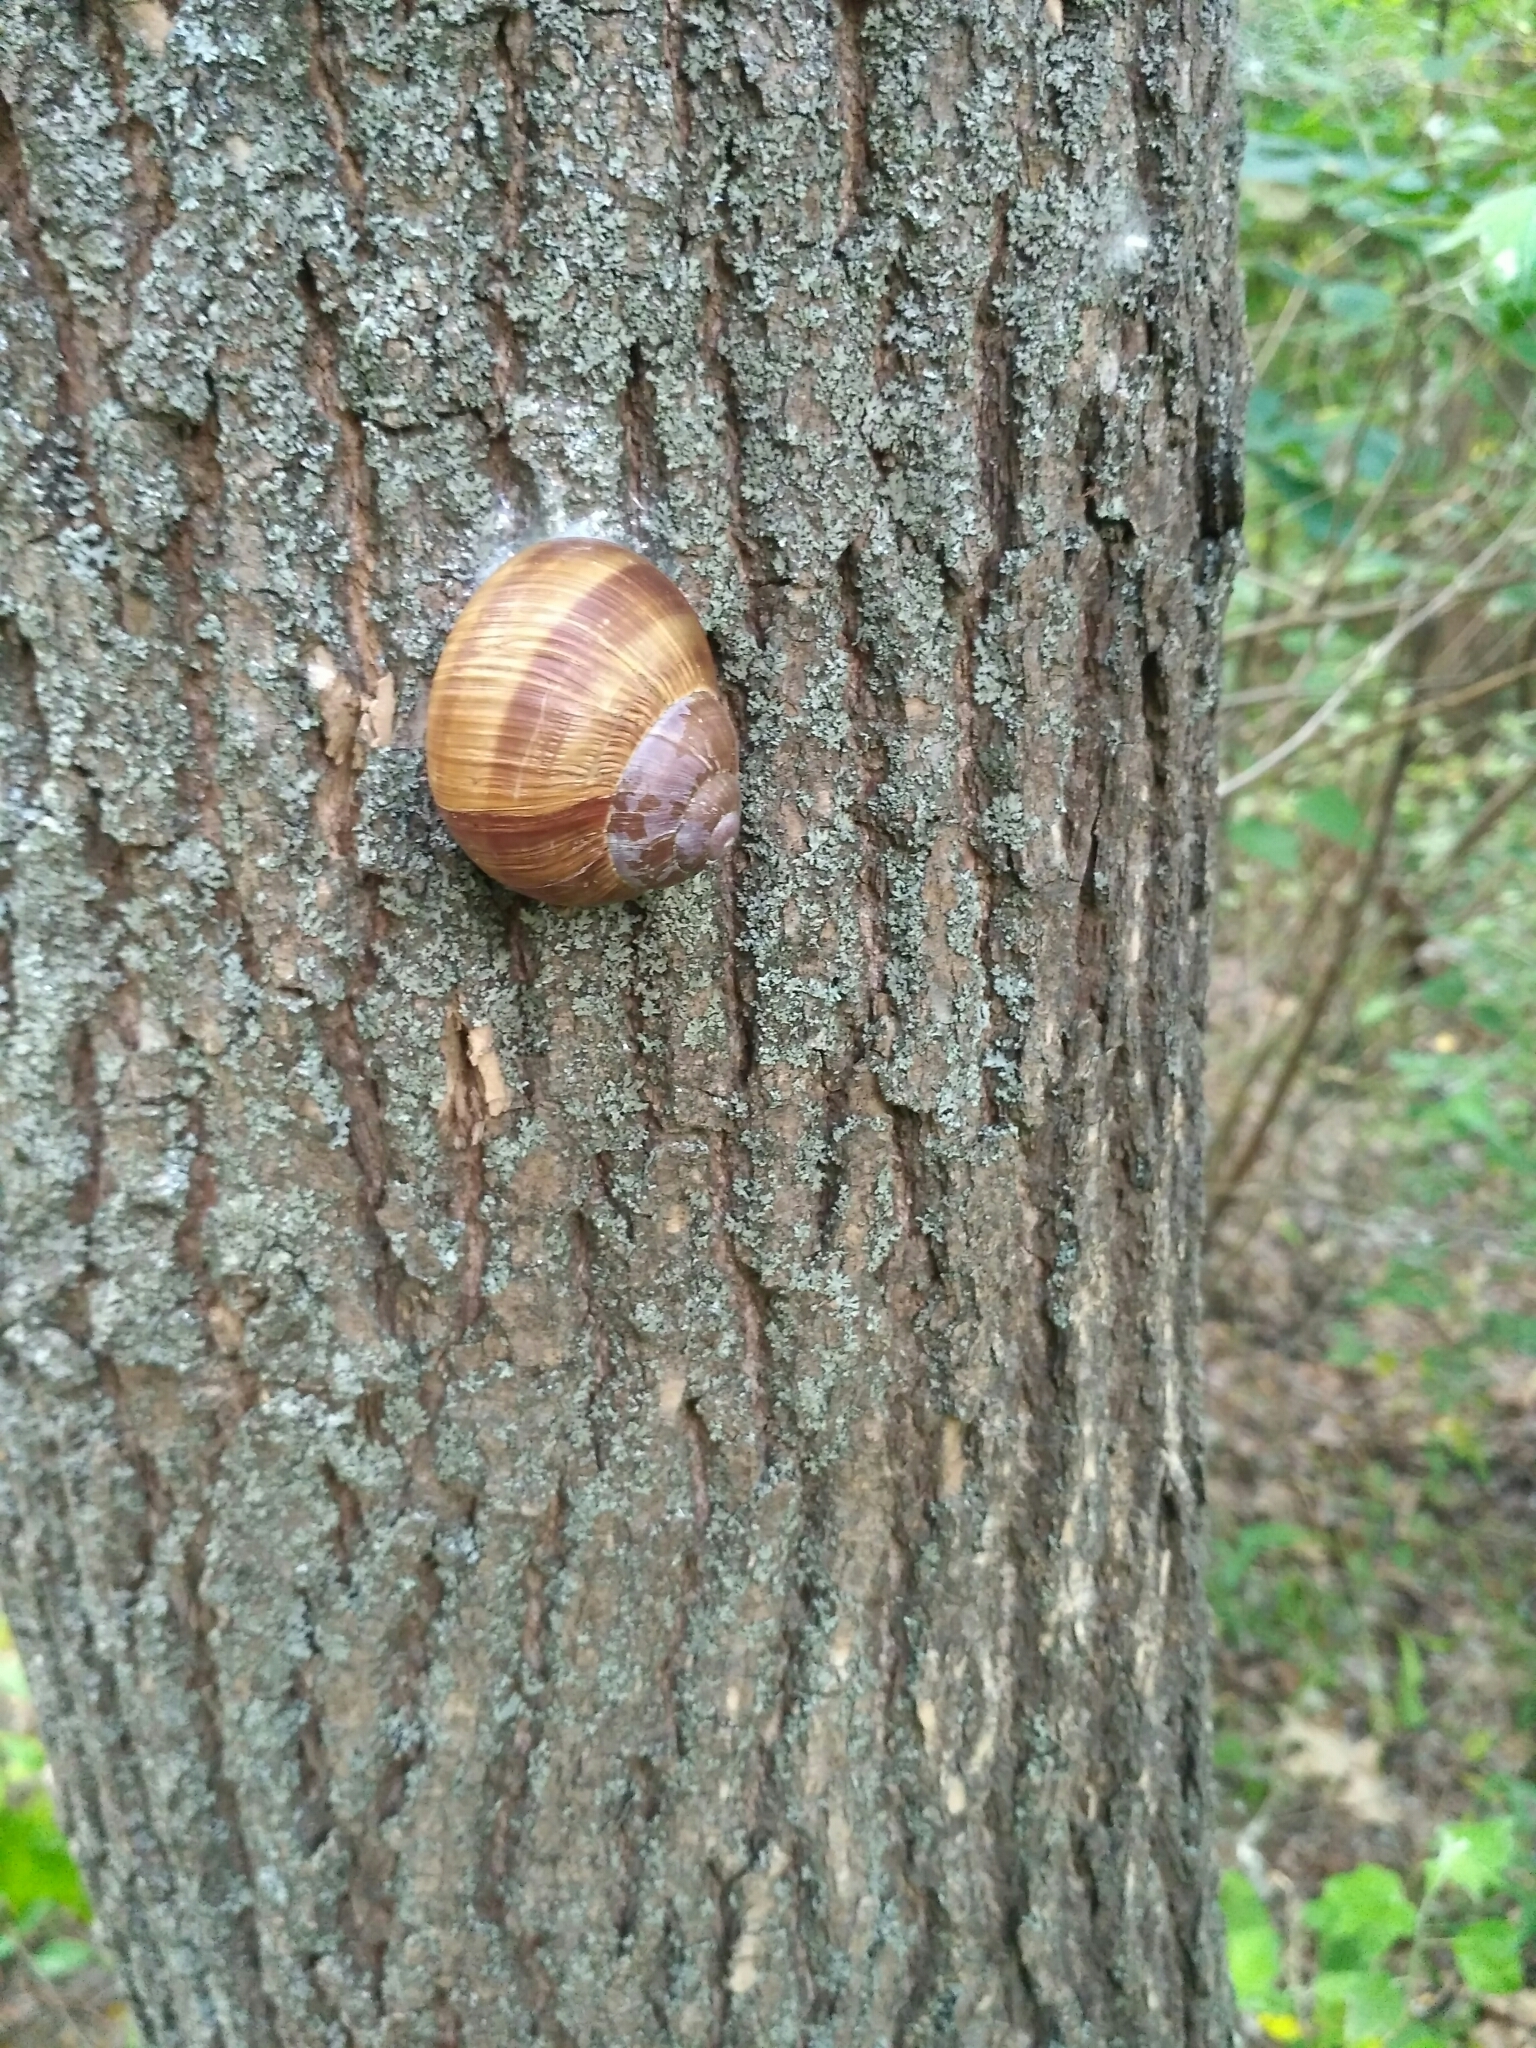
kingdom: Animalia
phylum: Mollusca
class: Gastropoda
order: Stylommatophora
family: Helicidae
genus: Helix
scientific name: Helix pomatia
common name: Roman snail
